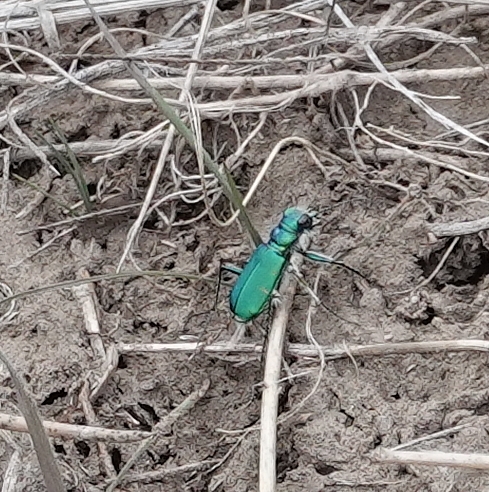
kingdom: Animalia
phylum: Arthropoda
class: Insecta
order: Coleoptera
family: Carabidae
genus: Cicindela
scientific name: Cicindela denverensis
